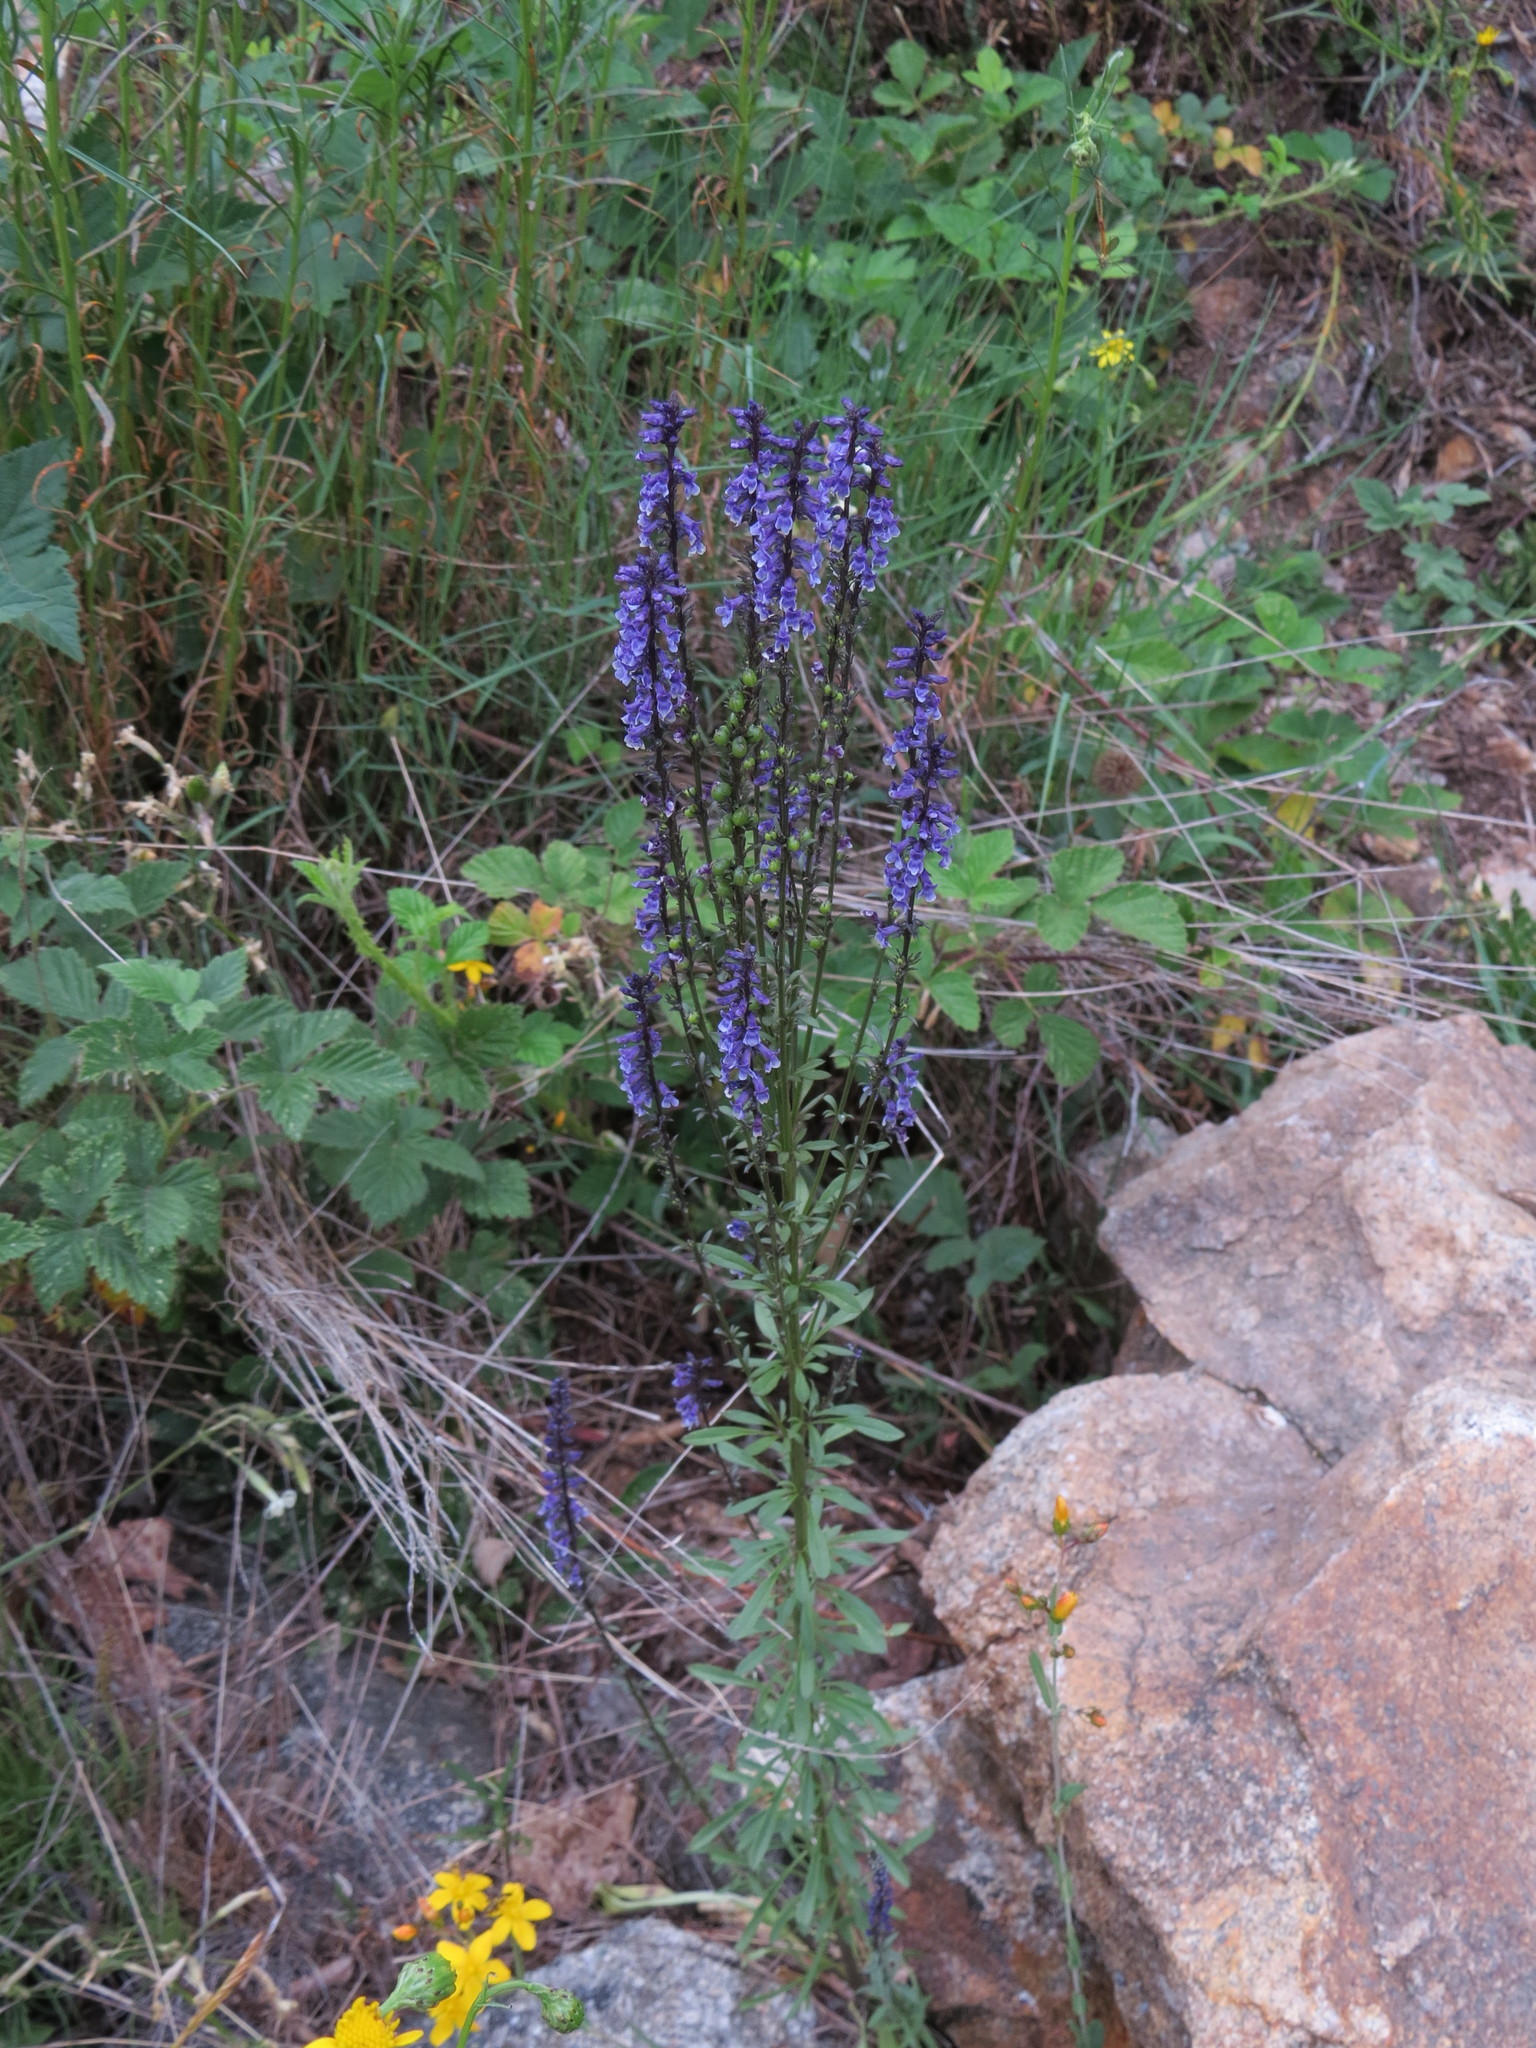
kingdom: Plantae
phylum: Tracheophyta
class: Magnoliopsida
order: Lamiales
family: Plantaginaceae
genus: Anarrhinum
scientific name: Anarrhinum bellidifolium
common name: Daisy-leaved toadflax
